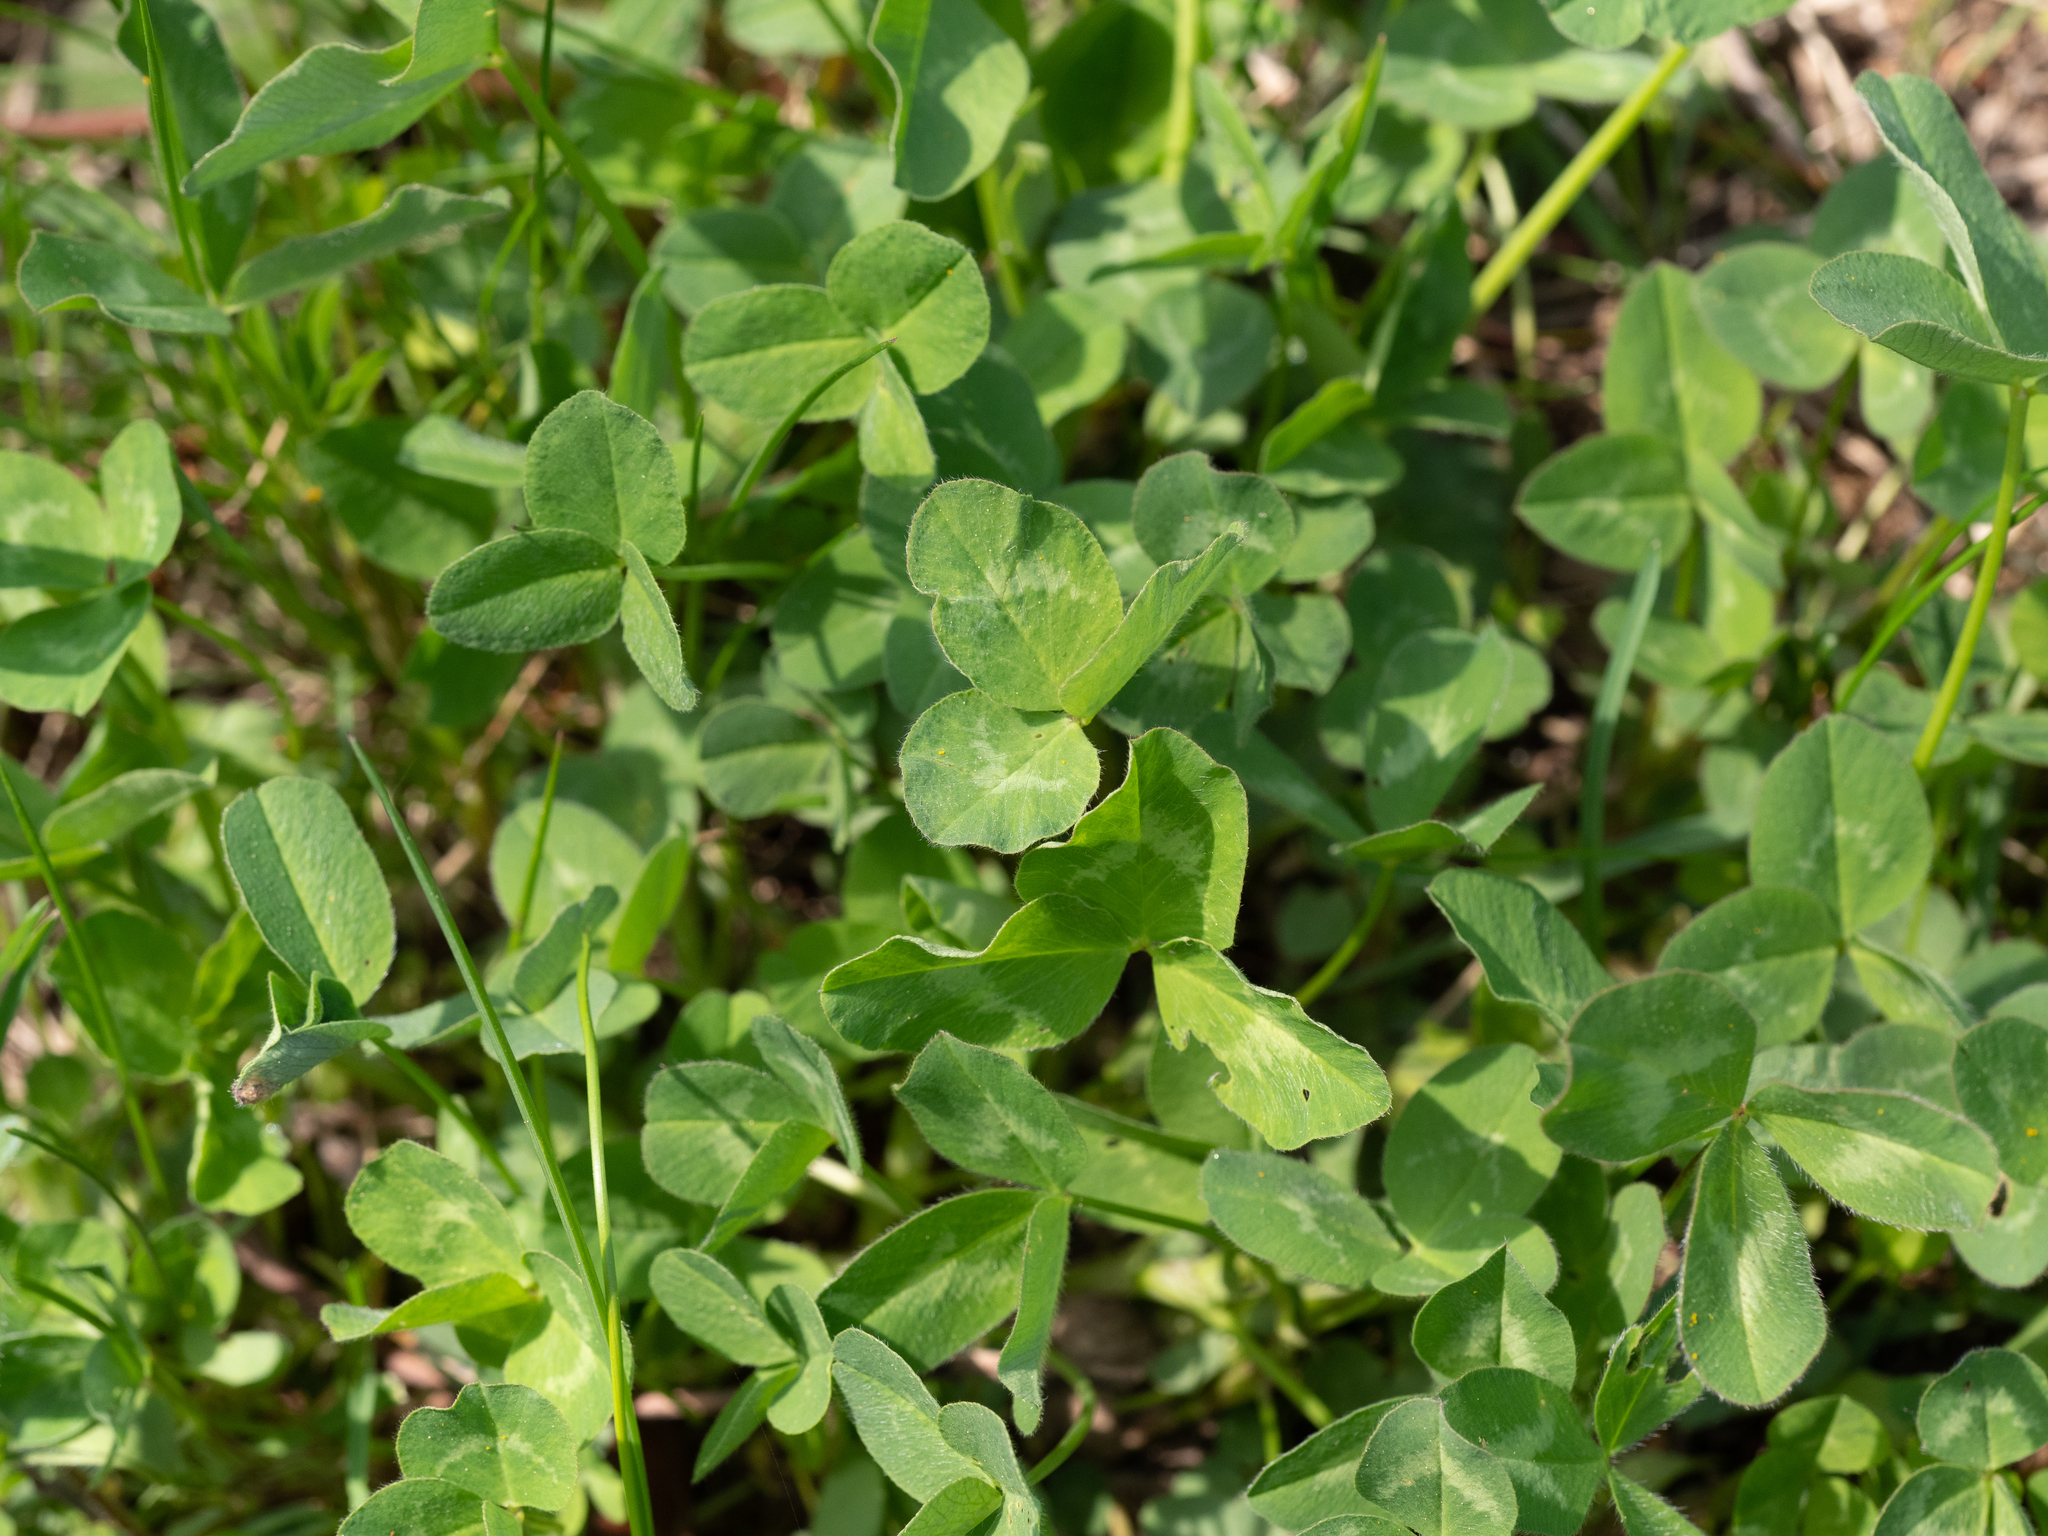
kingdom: Plantae
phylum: Tracheophyta
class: Magnoliopsida
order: Fabales
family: Fabaceae
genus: Trifolium
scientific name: Trifolium repens
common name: White clover
